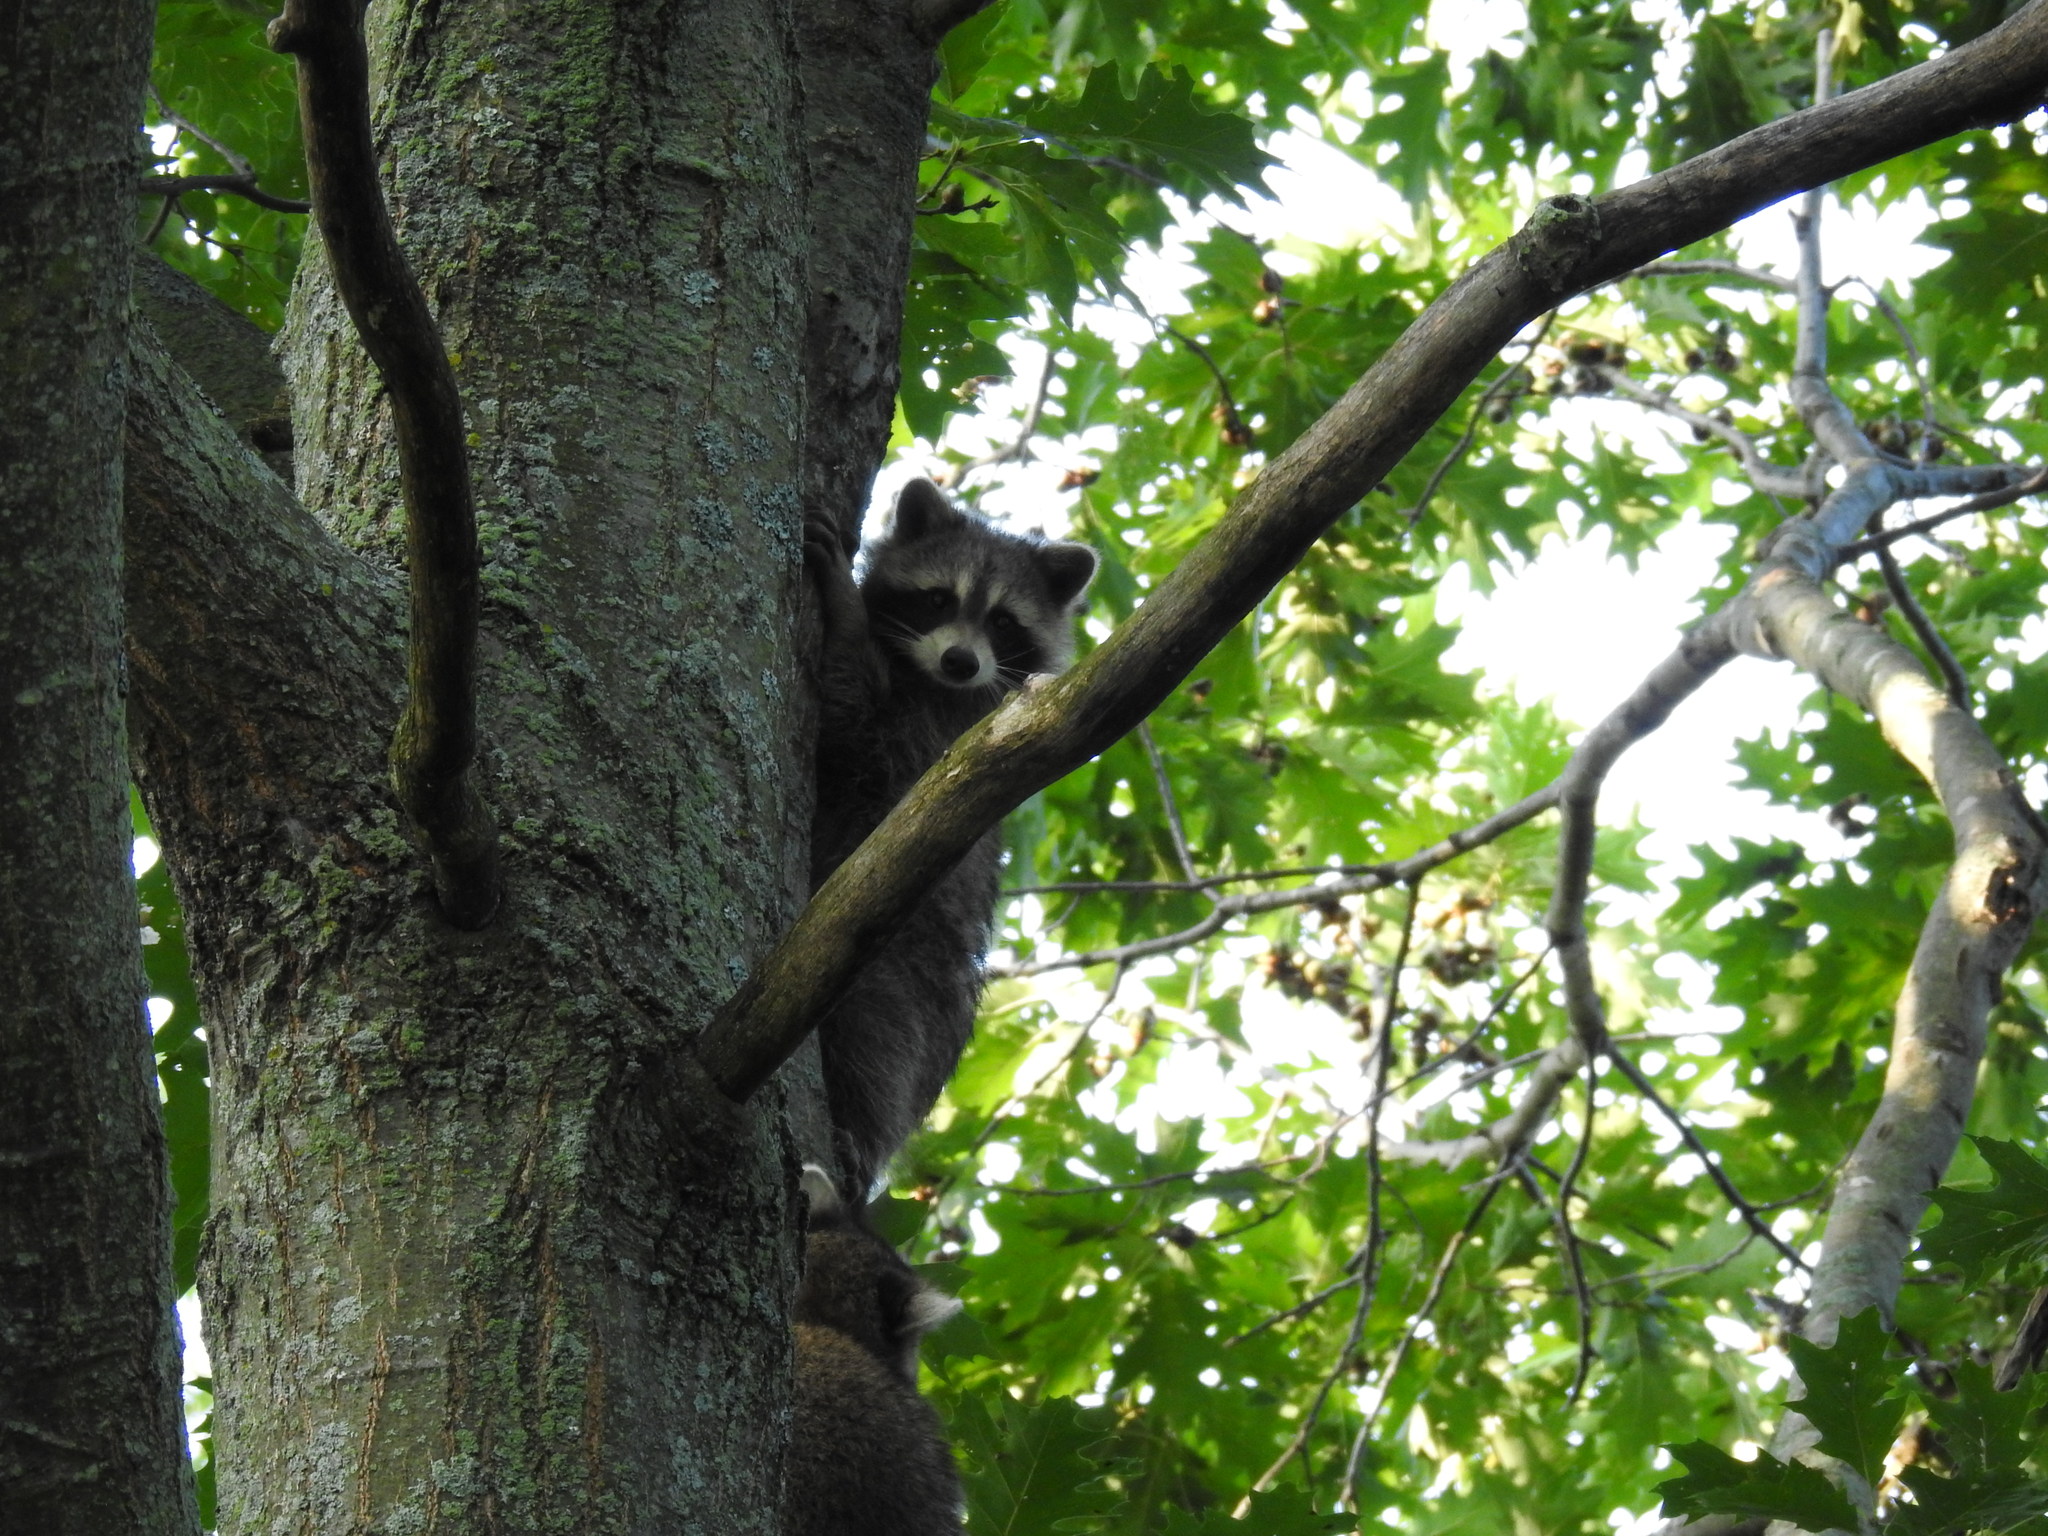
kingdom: Animalia
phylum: Chordata
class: Mammalia
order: Carnivora
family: Procyonidae
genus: Procyon
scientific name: Procyon lotor
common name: Raccoon
